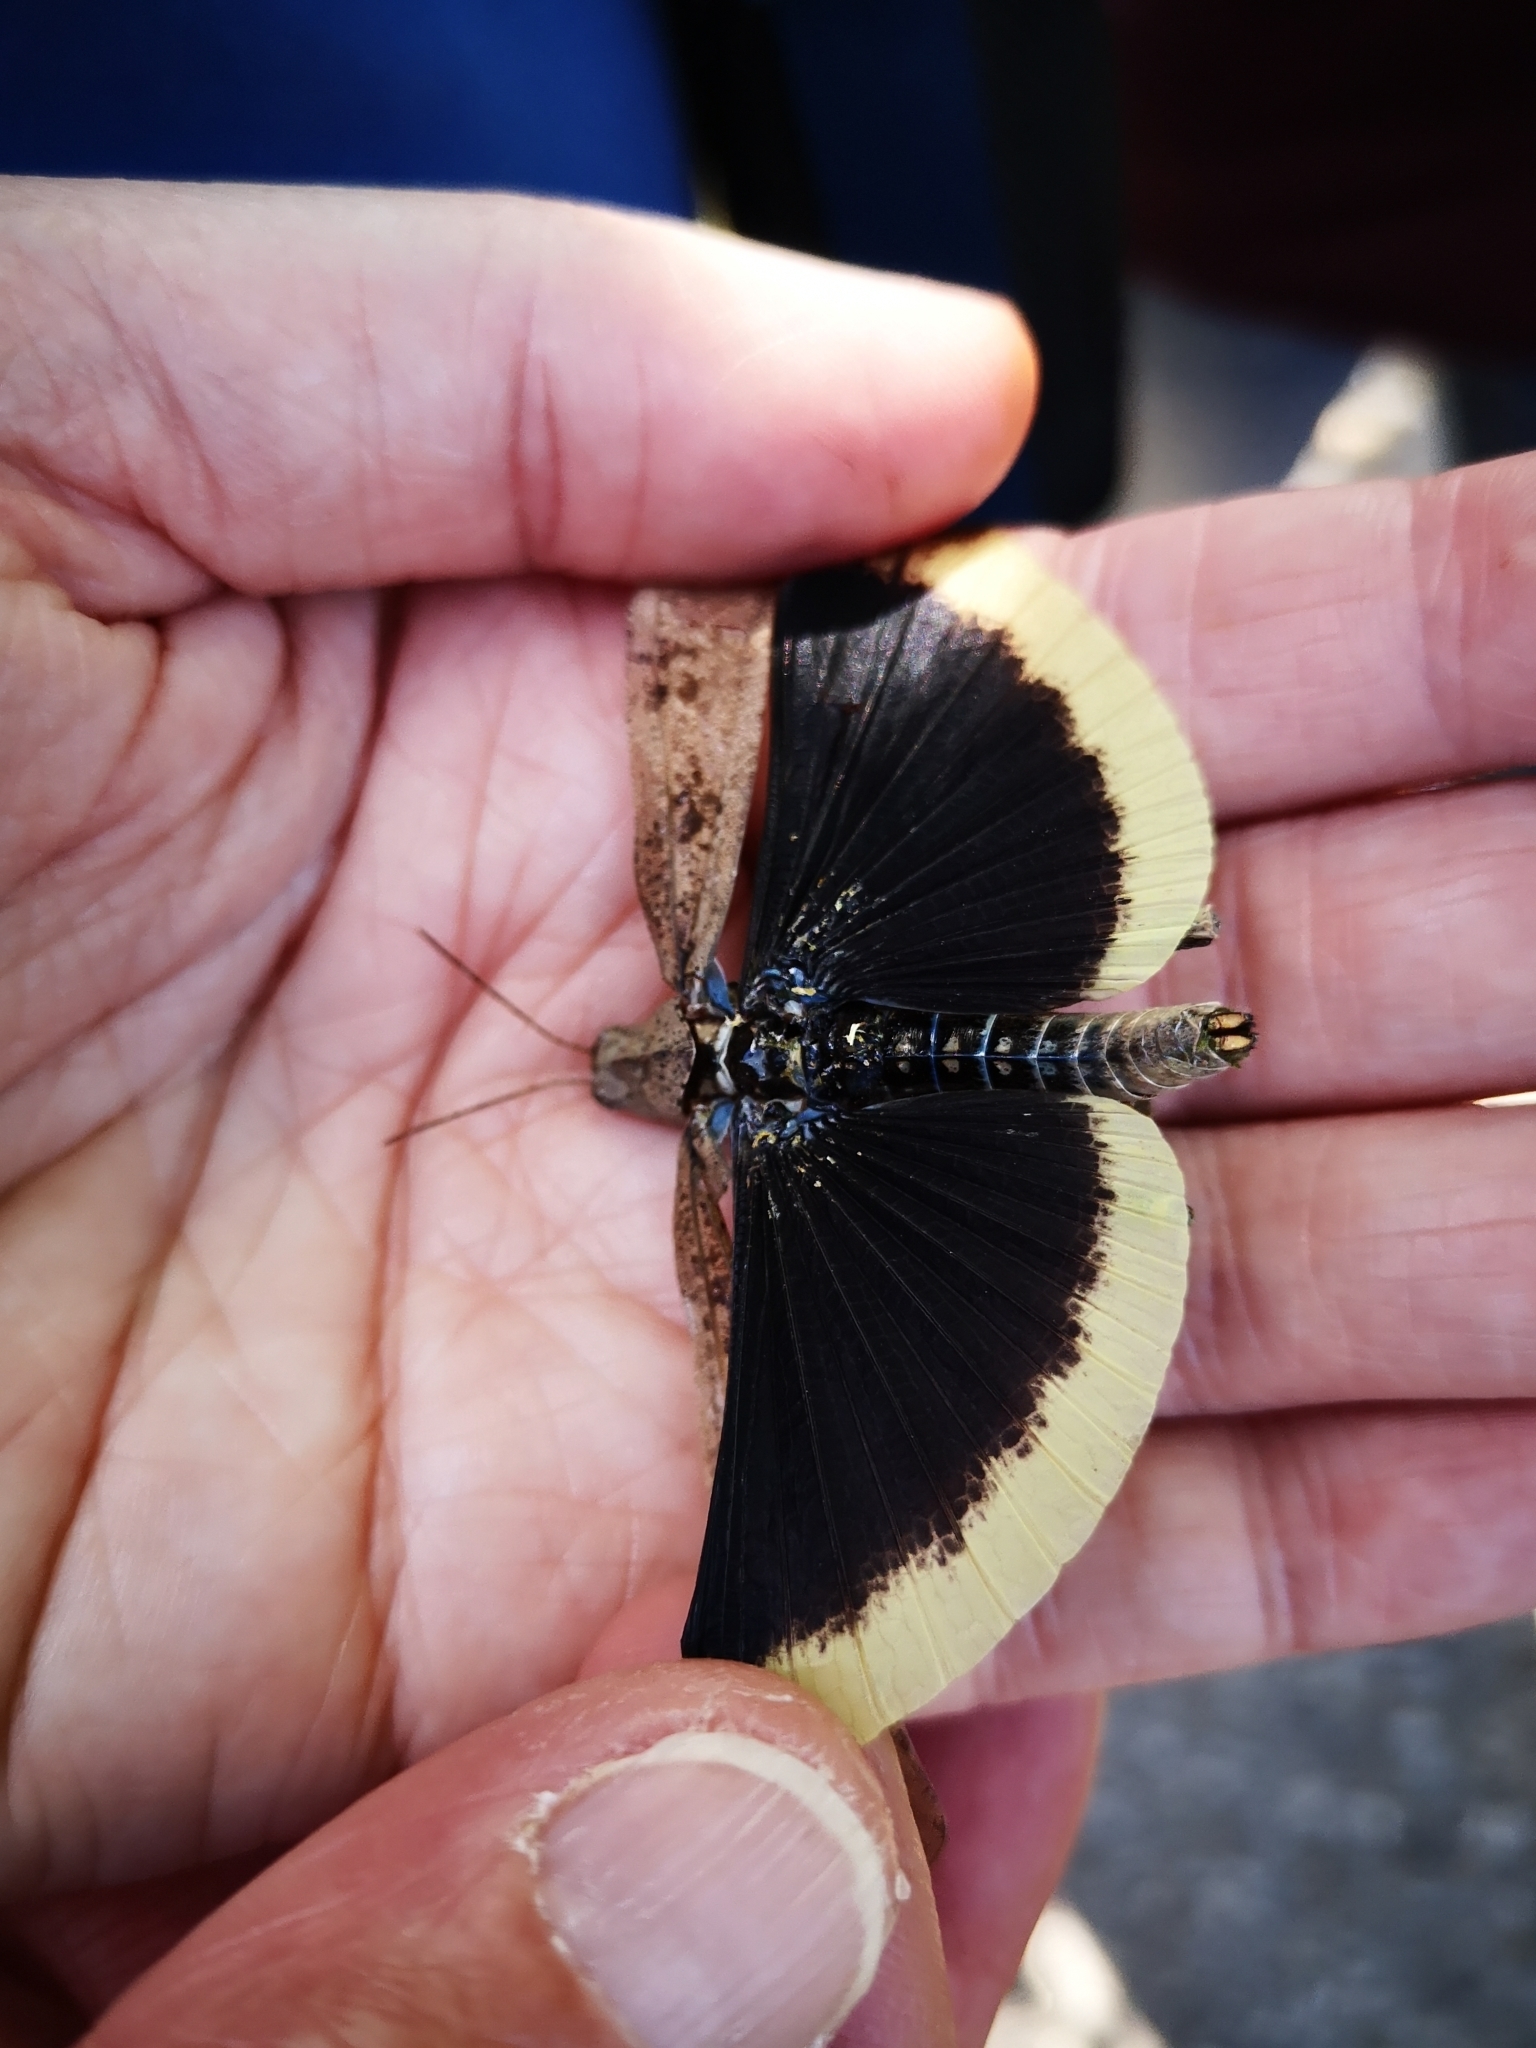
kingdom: Animalia
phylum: Arthropoda
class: Insecta
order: Orthoptera
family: Acrididae
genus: Dissosteira
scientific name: Dissosteira carolina
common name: Carolina grasshopper
